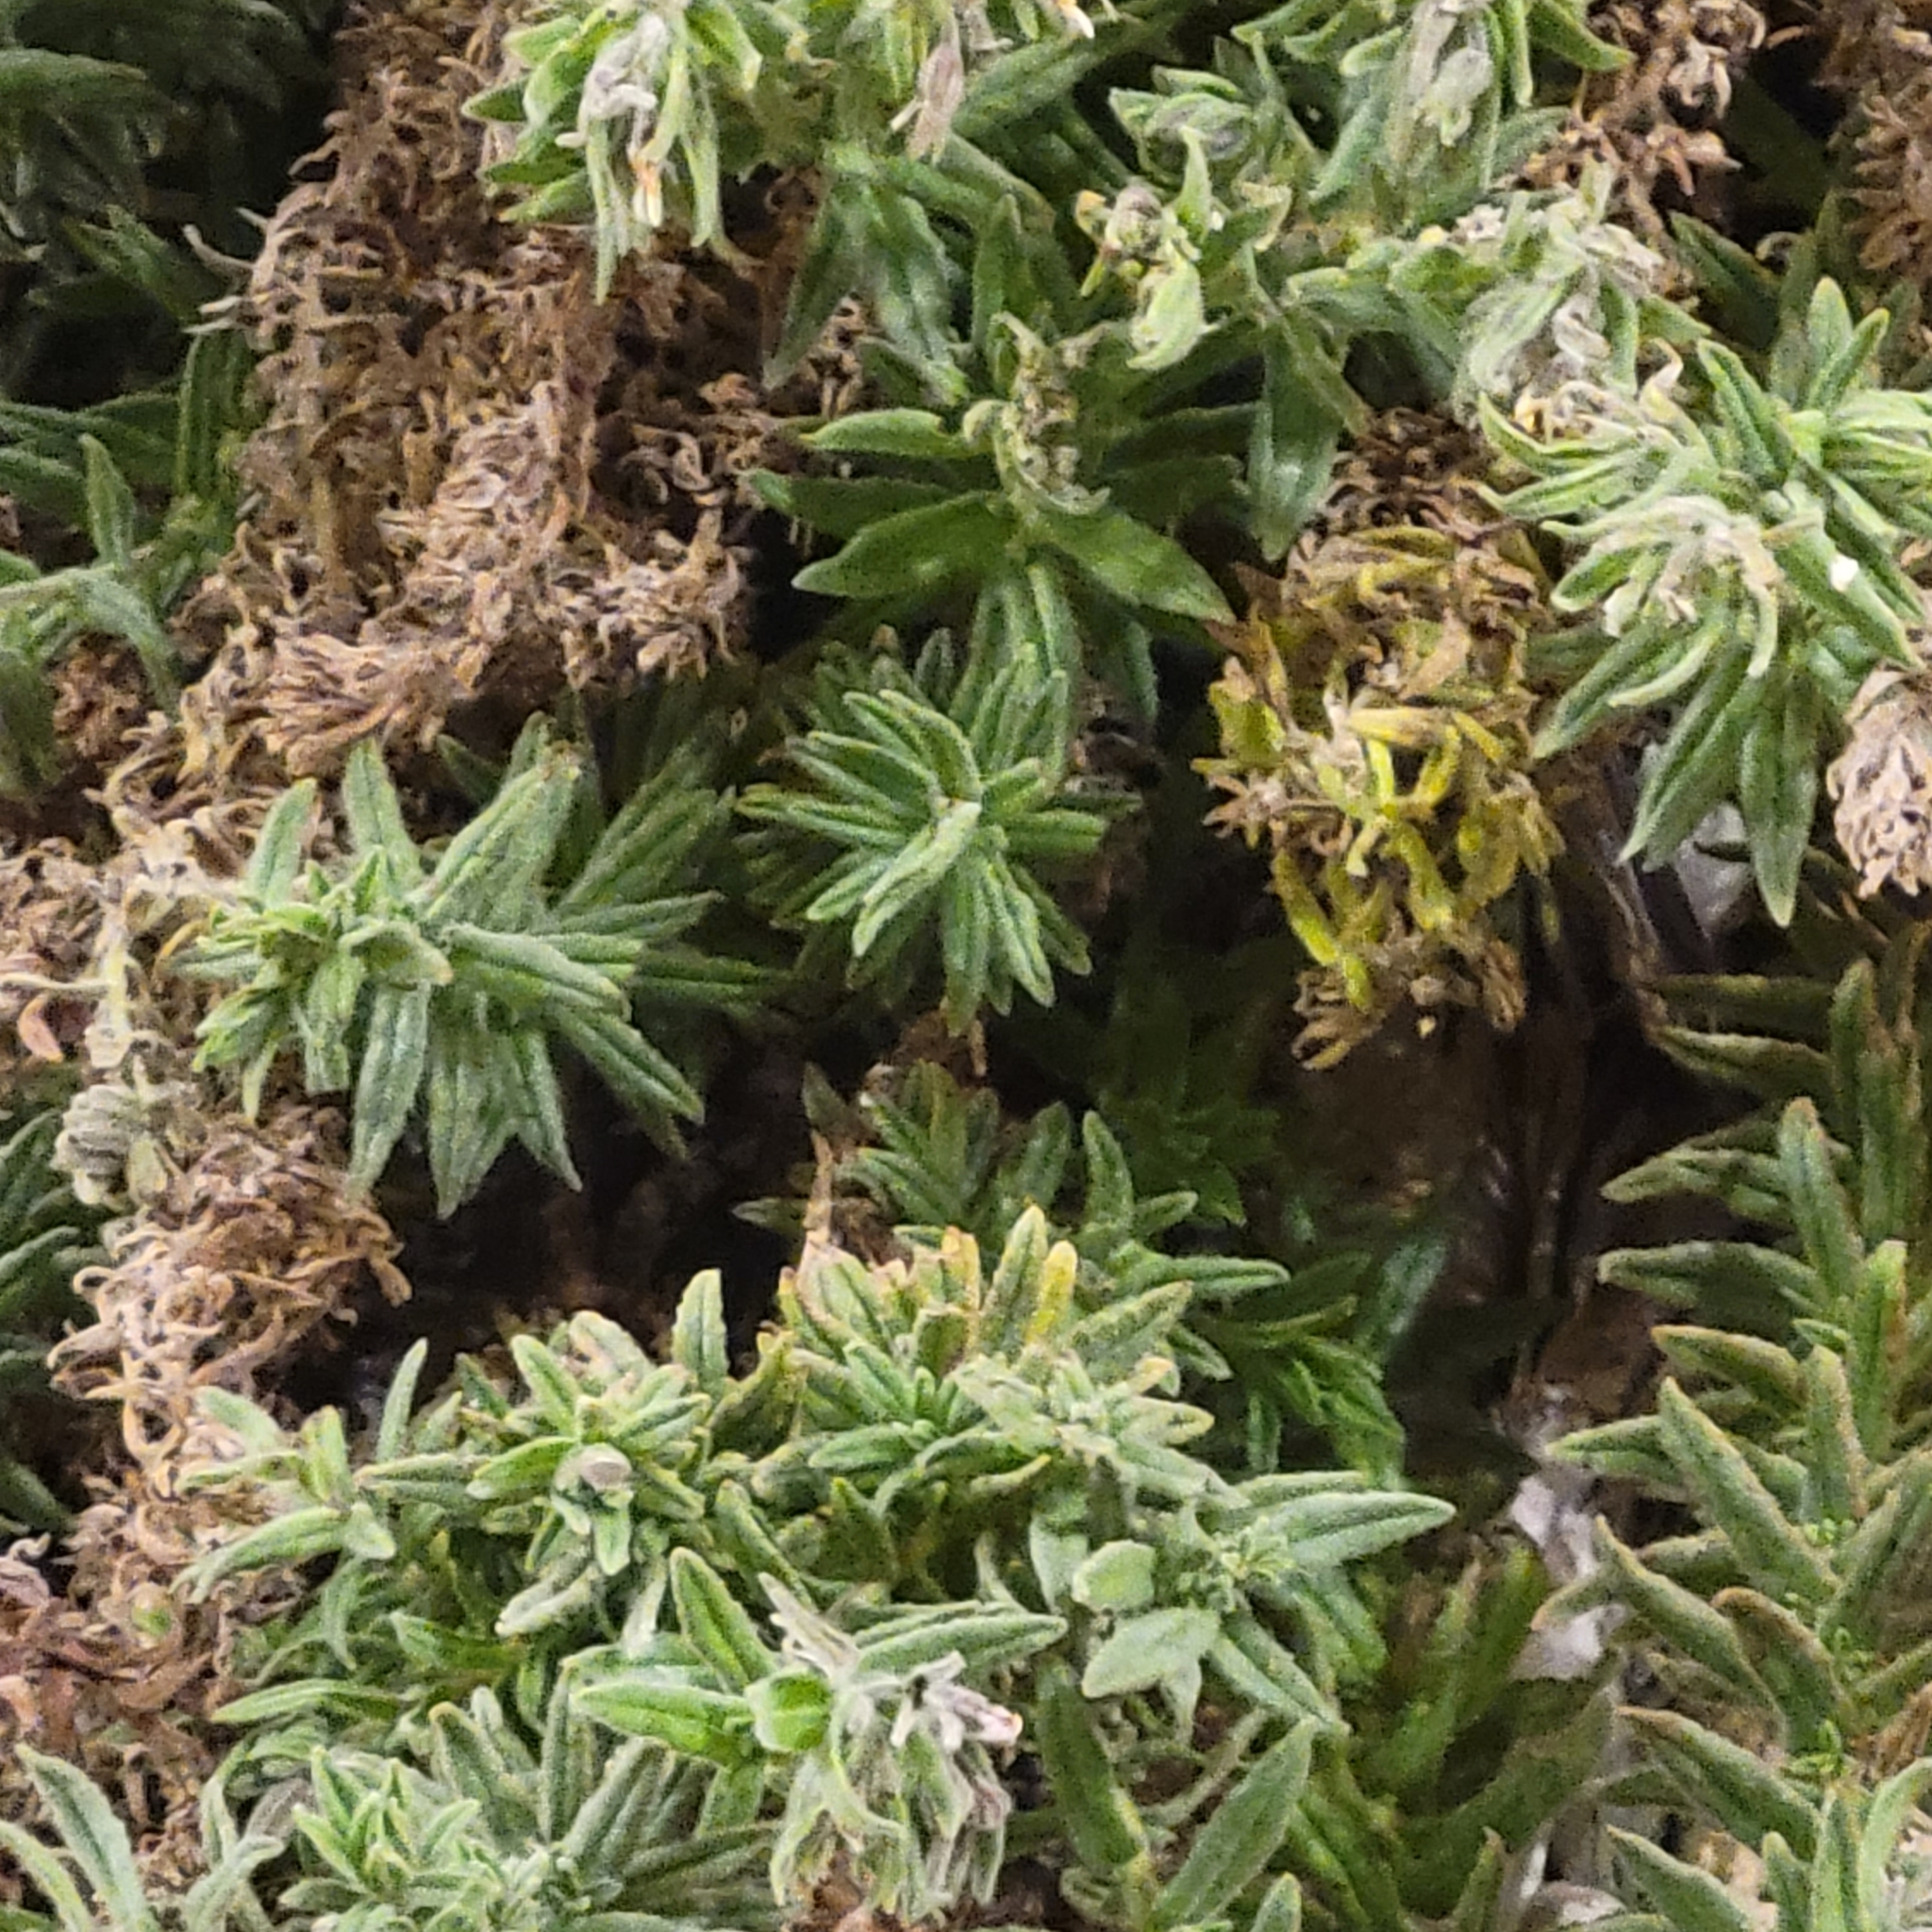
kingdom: Plantae
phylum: Tracheophyta
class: Magnoliopsida
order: Boraginales
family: Boraginaceae
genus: Podonosma
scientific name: Podonosma orientalis
